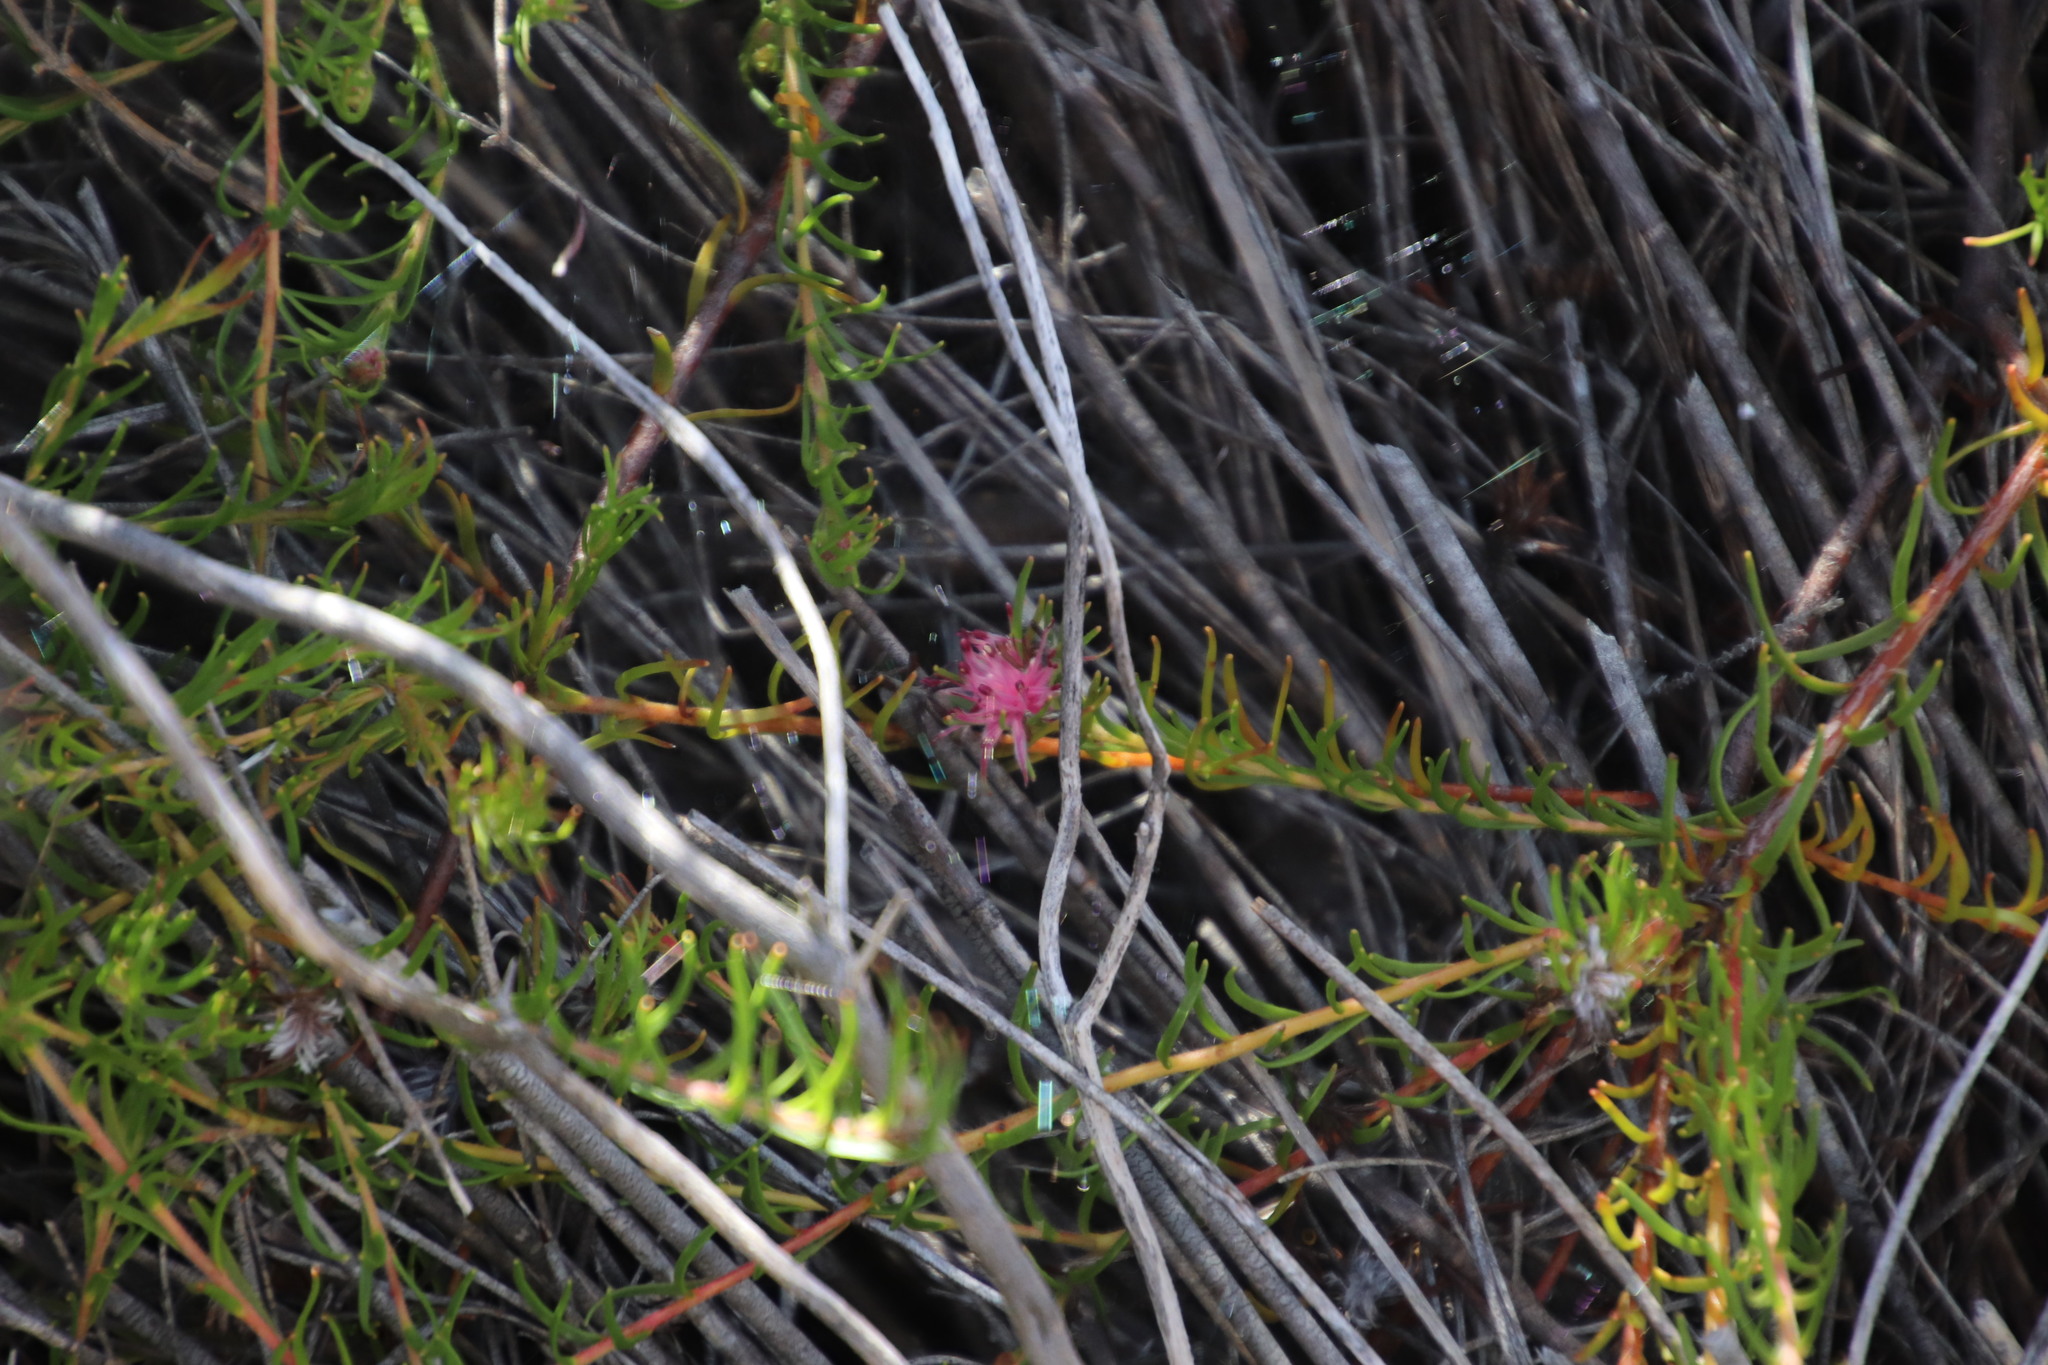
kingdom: Plantae
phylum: Tracheophyta
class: Magnoliopsida
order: Proteales
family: Proteaceae
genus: Diastella
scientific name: Diastella proteoides
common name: Flats silkypuff
